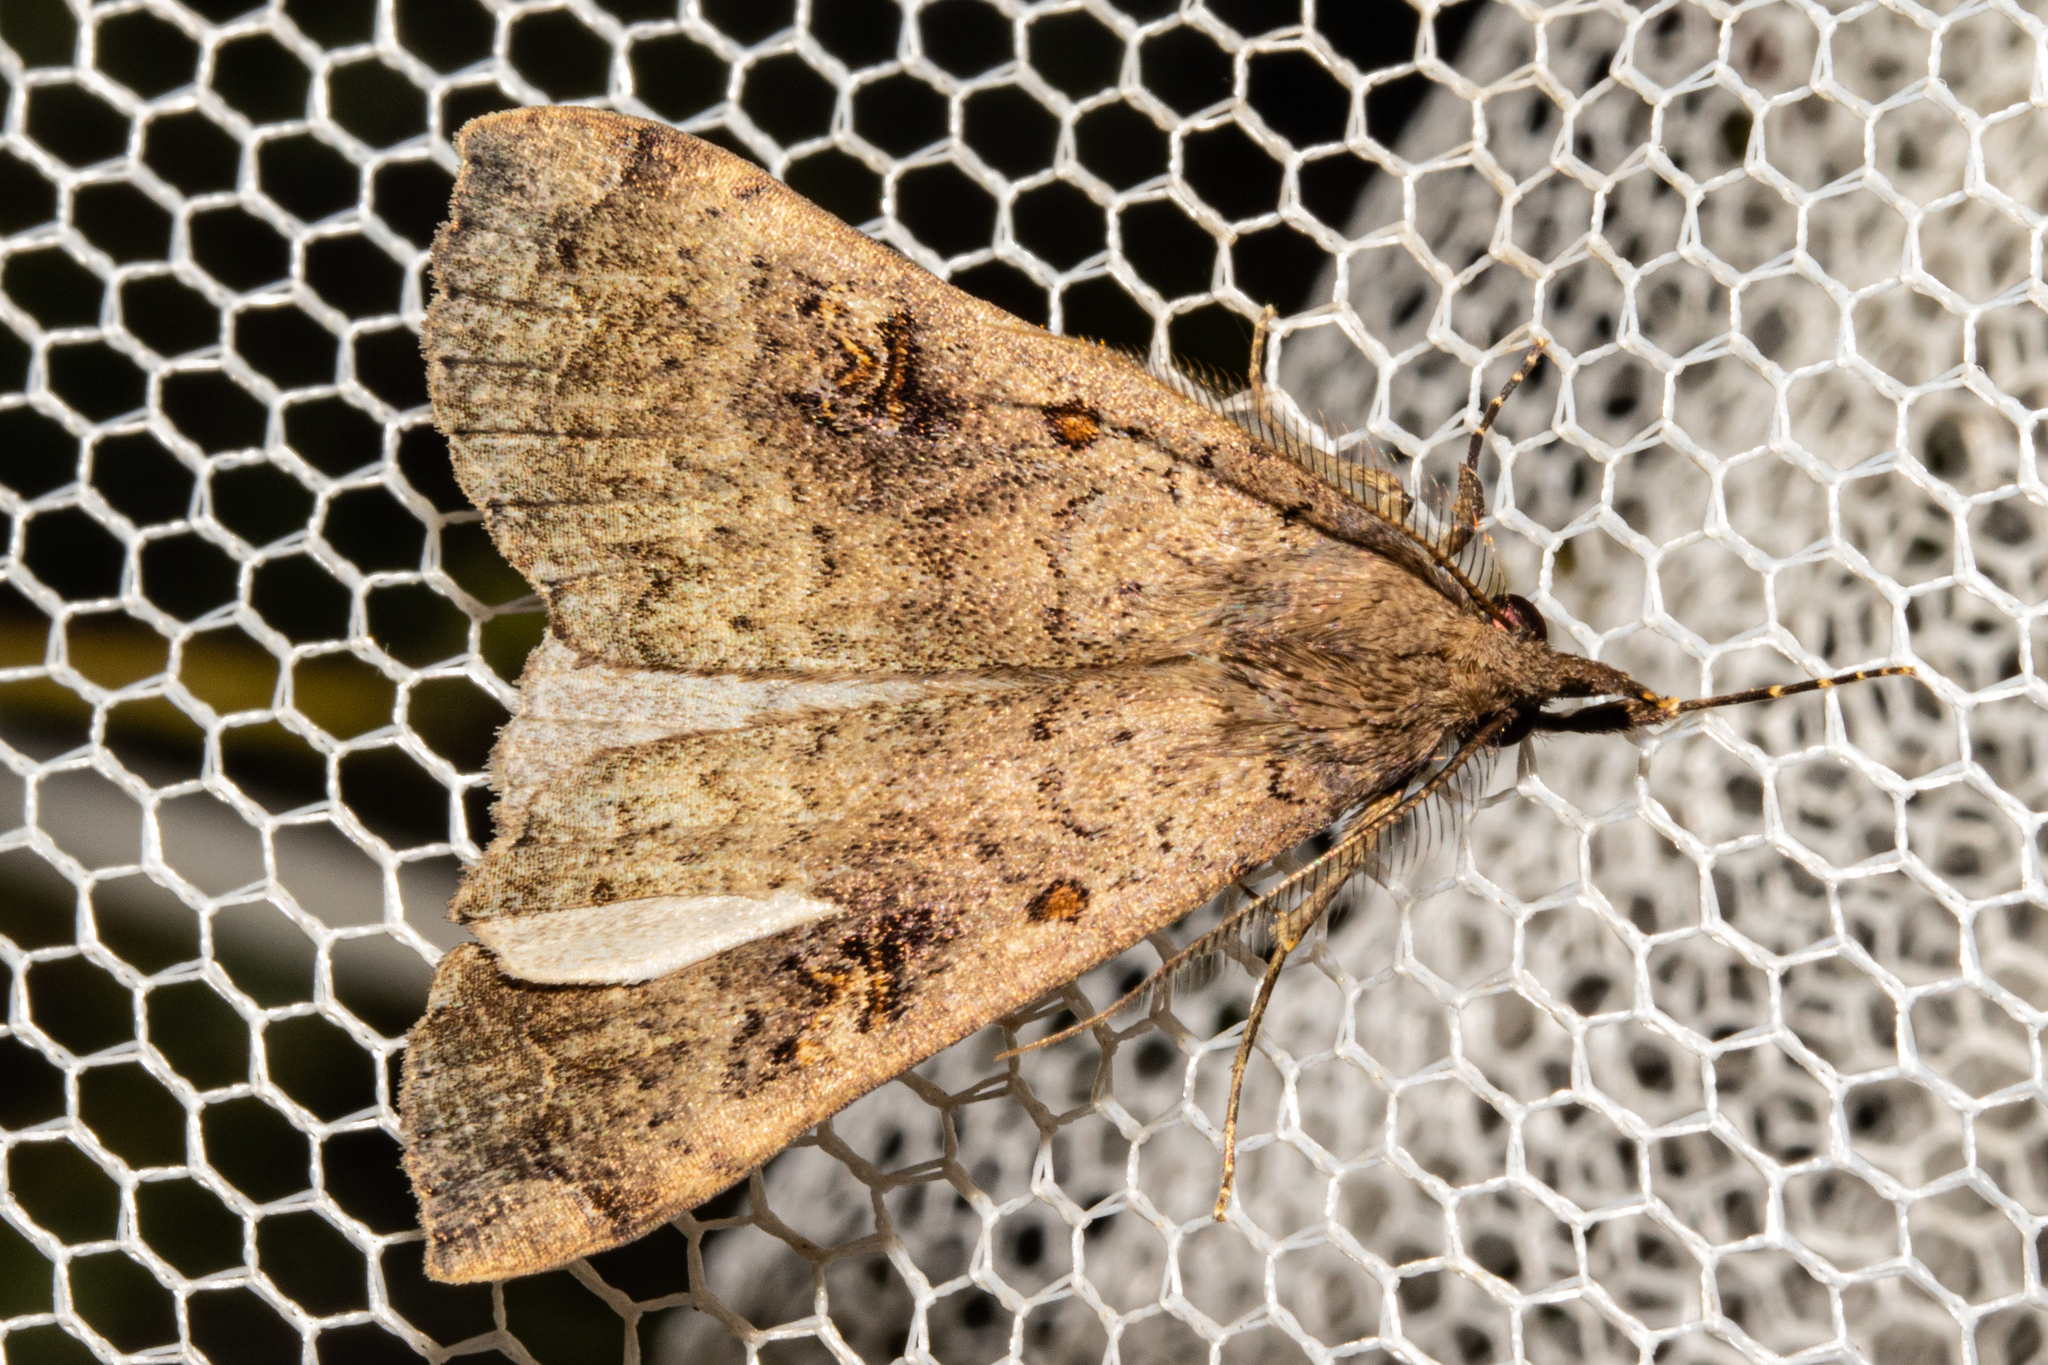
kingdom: Animalia
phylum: Arthropoda
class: Insecta
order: Lepidoptera
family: Erebidae
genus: Rhapsa
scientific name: Rhapsa scotosialis
